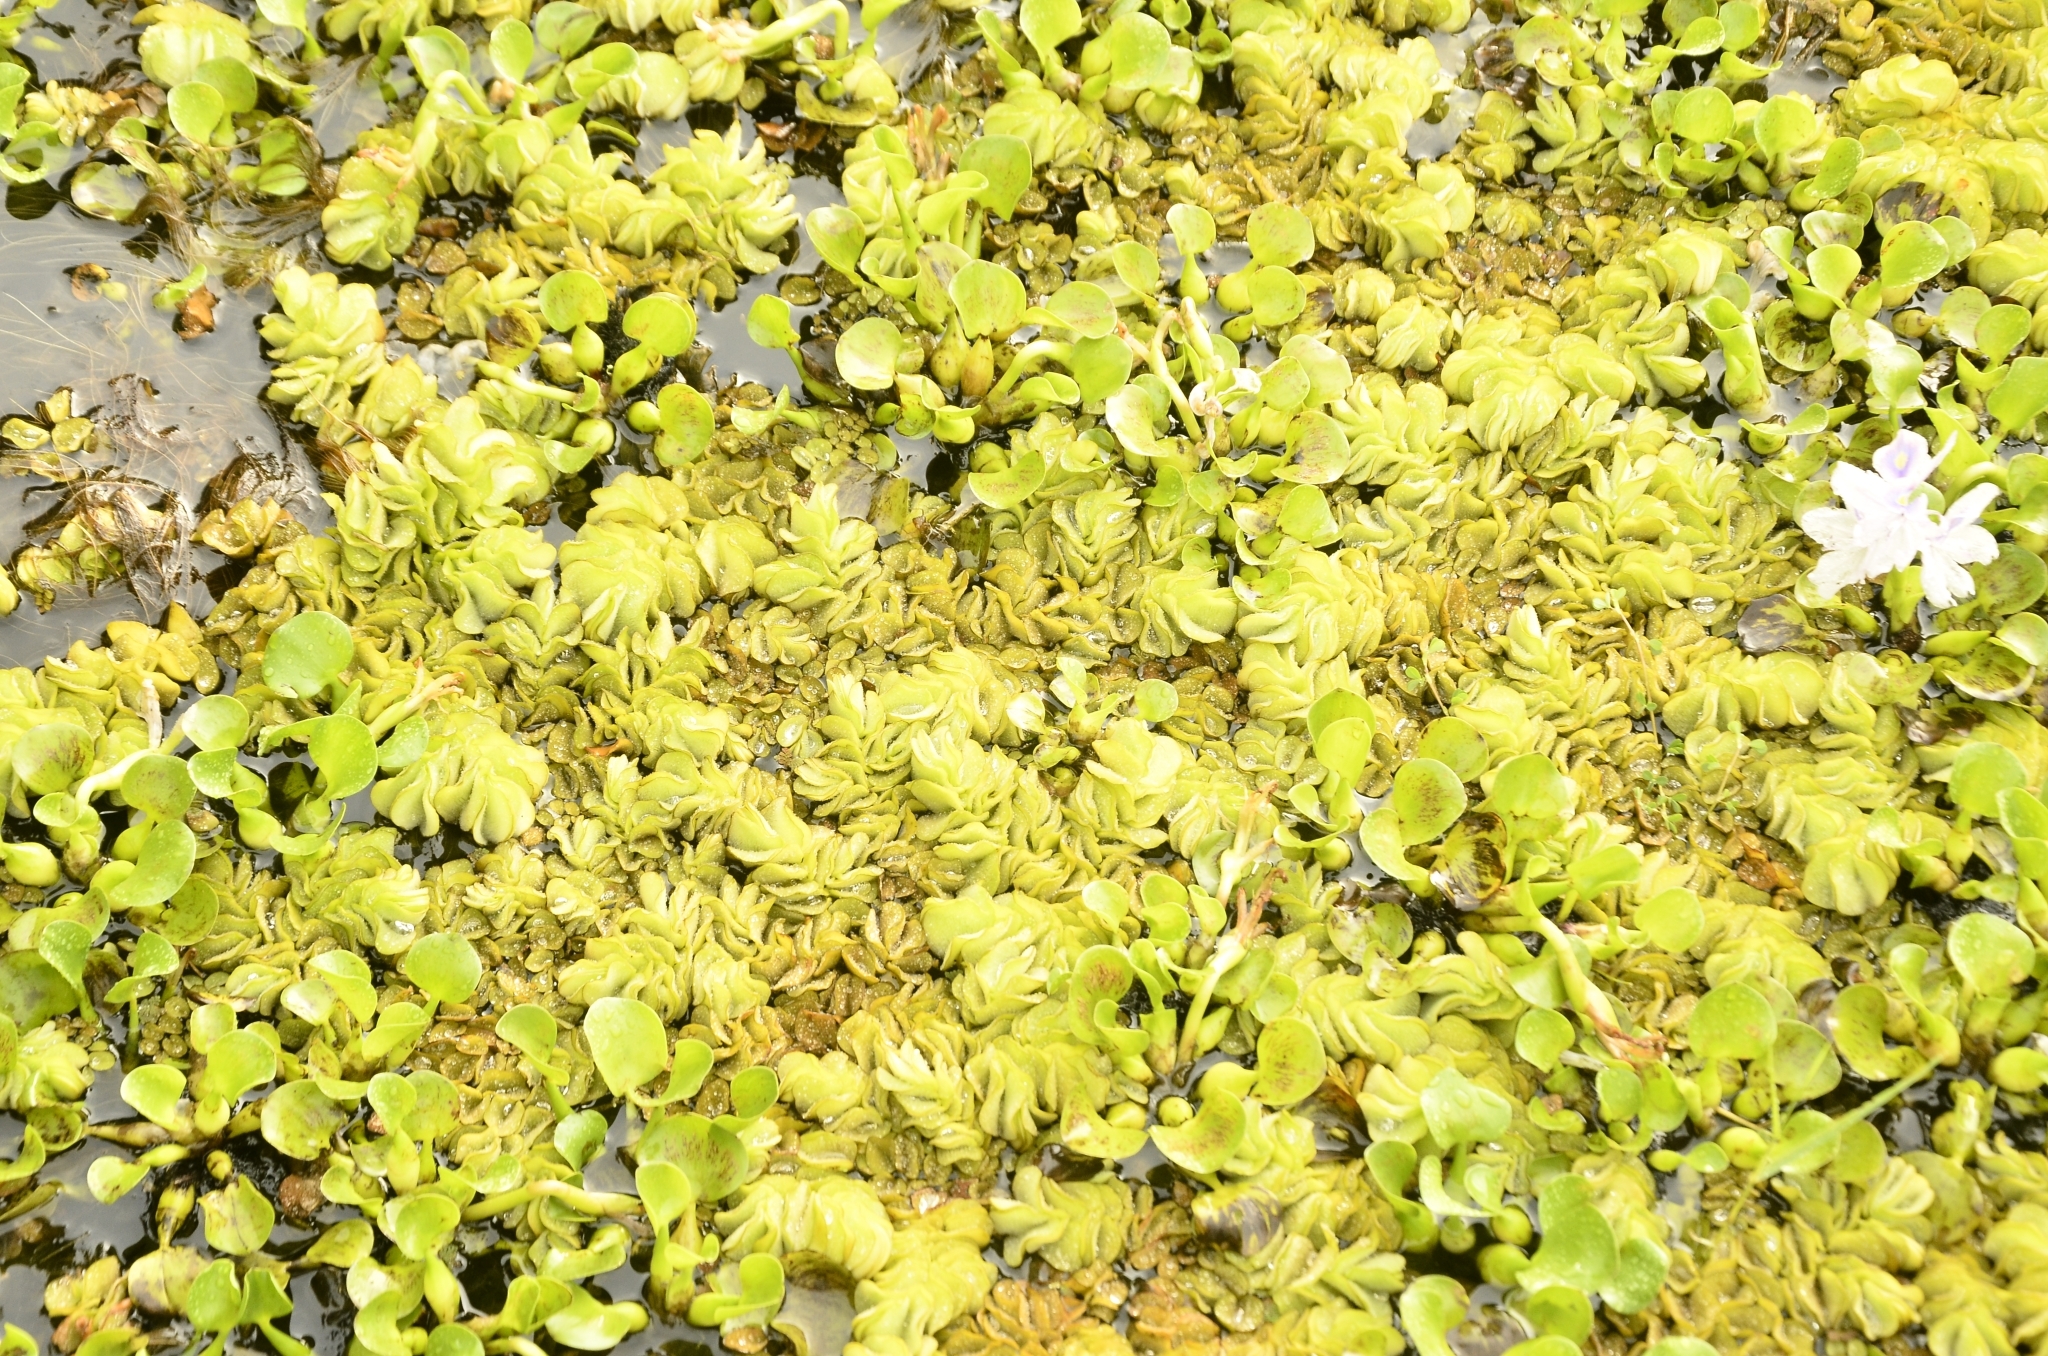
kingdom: Plantae
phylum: Tracheophyta
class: Polypodiopsida
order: Salviniales
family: Salviniaceae
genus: Salvinia
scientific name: Salvinia molesta
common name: Kariba weed
